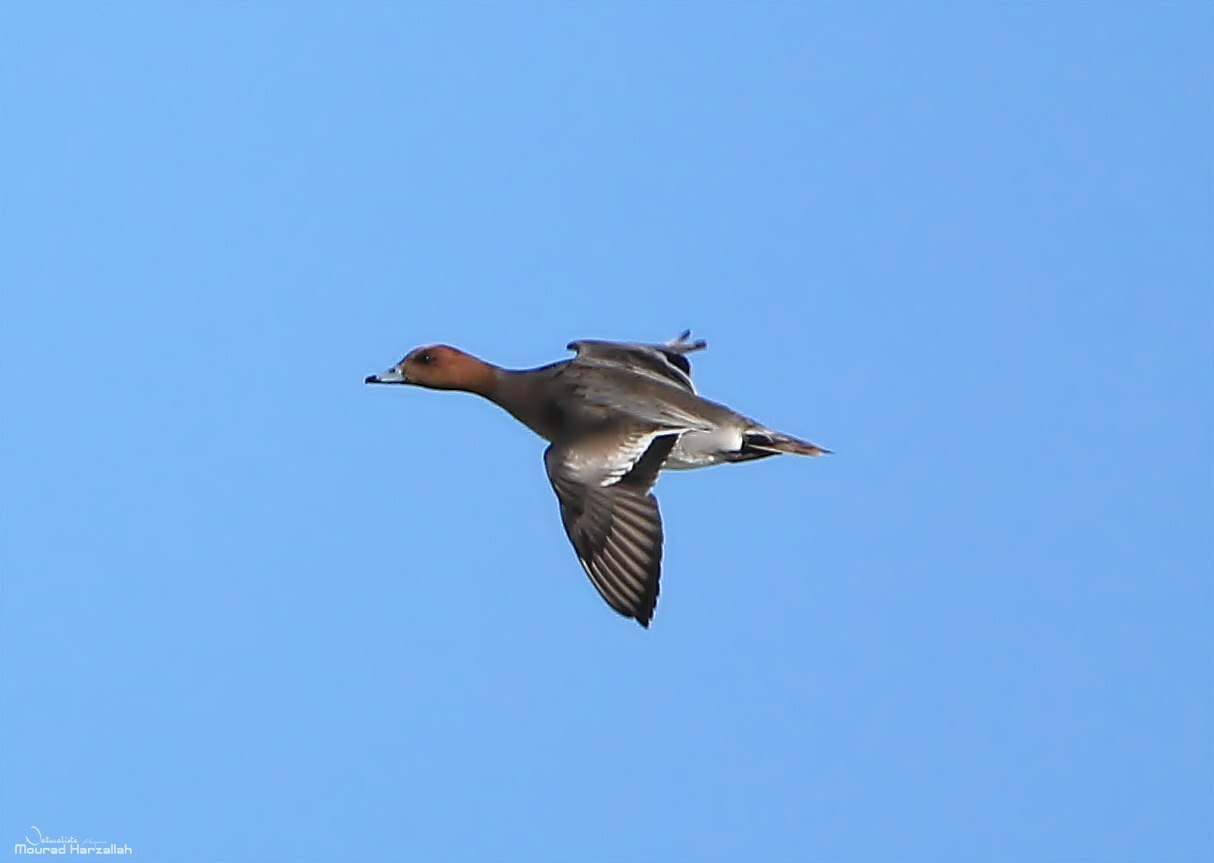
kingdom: Animalia
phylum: Chordata
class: Aves
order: Anseriformes
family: Anatidae
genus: Mareca
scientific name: Mareca penelope
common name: Eurasian wigeon
